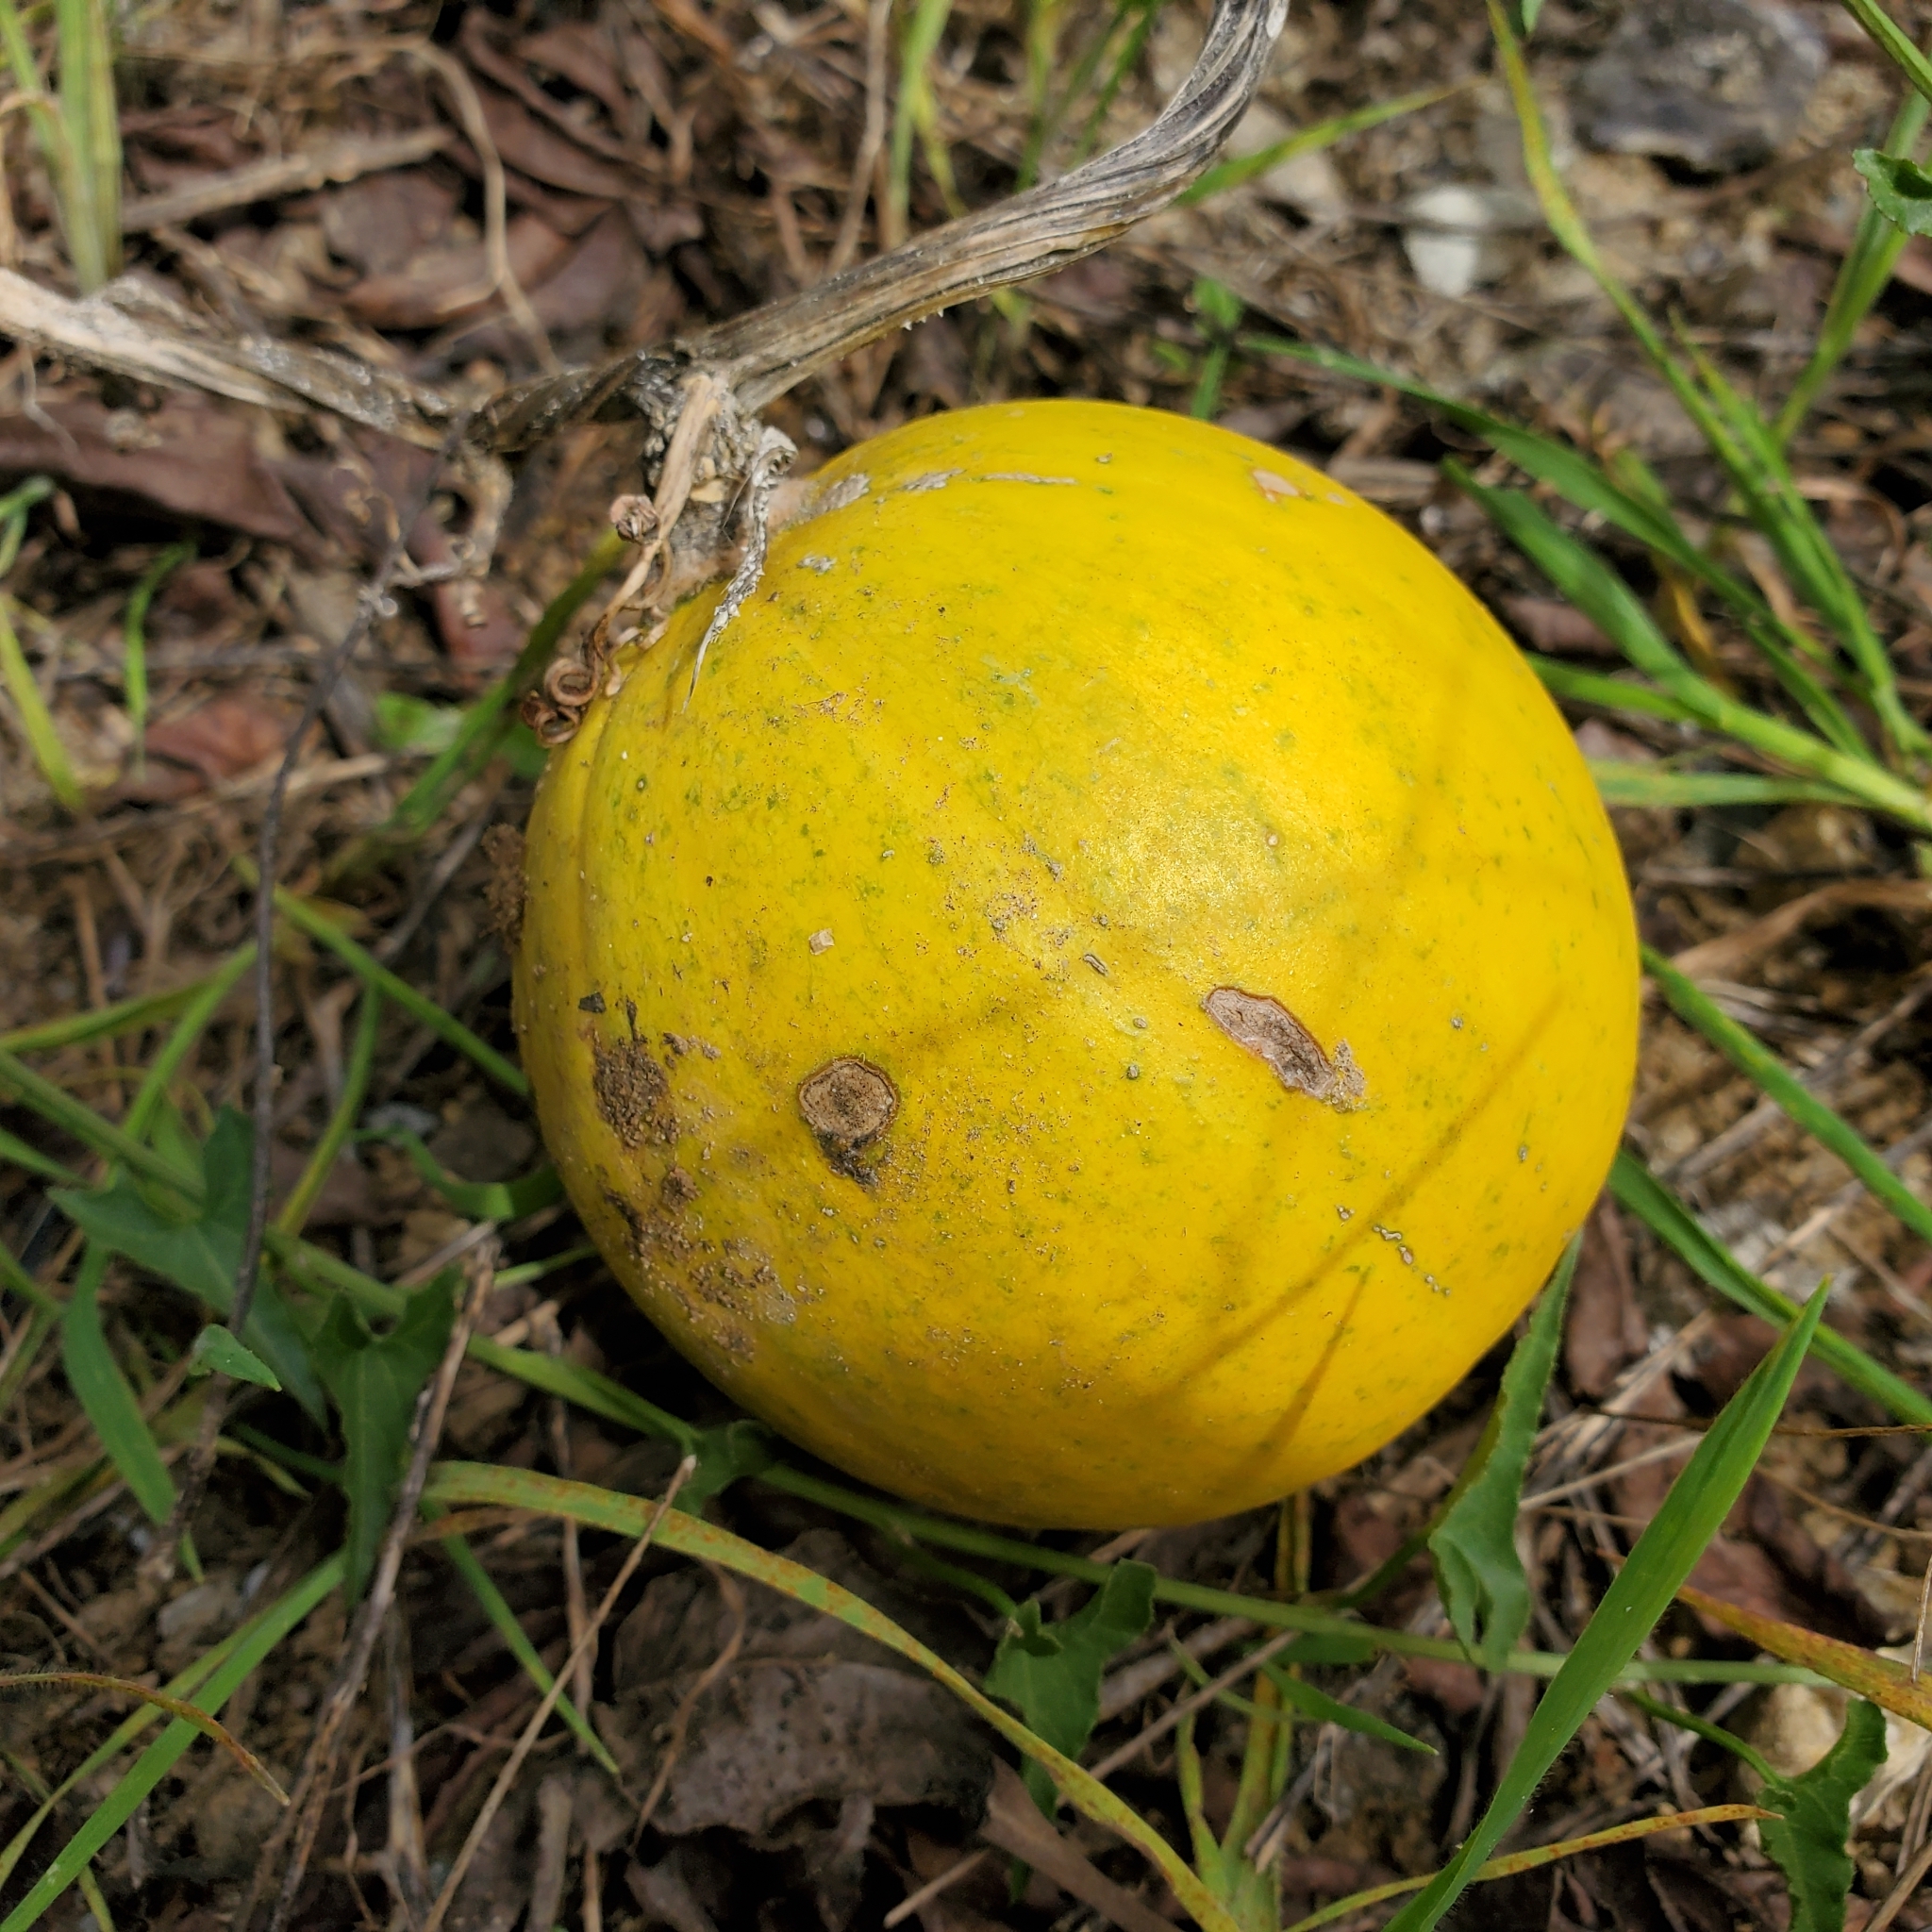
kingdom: Plantae
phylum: Tracheophyta
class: Magnoliopsida
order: Cucurbitales
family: Cucurbitaceae
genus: Cucurbita
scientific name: Cucurbita foetidissima
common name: Buffalo gourd
